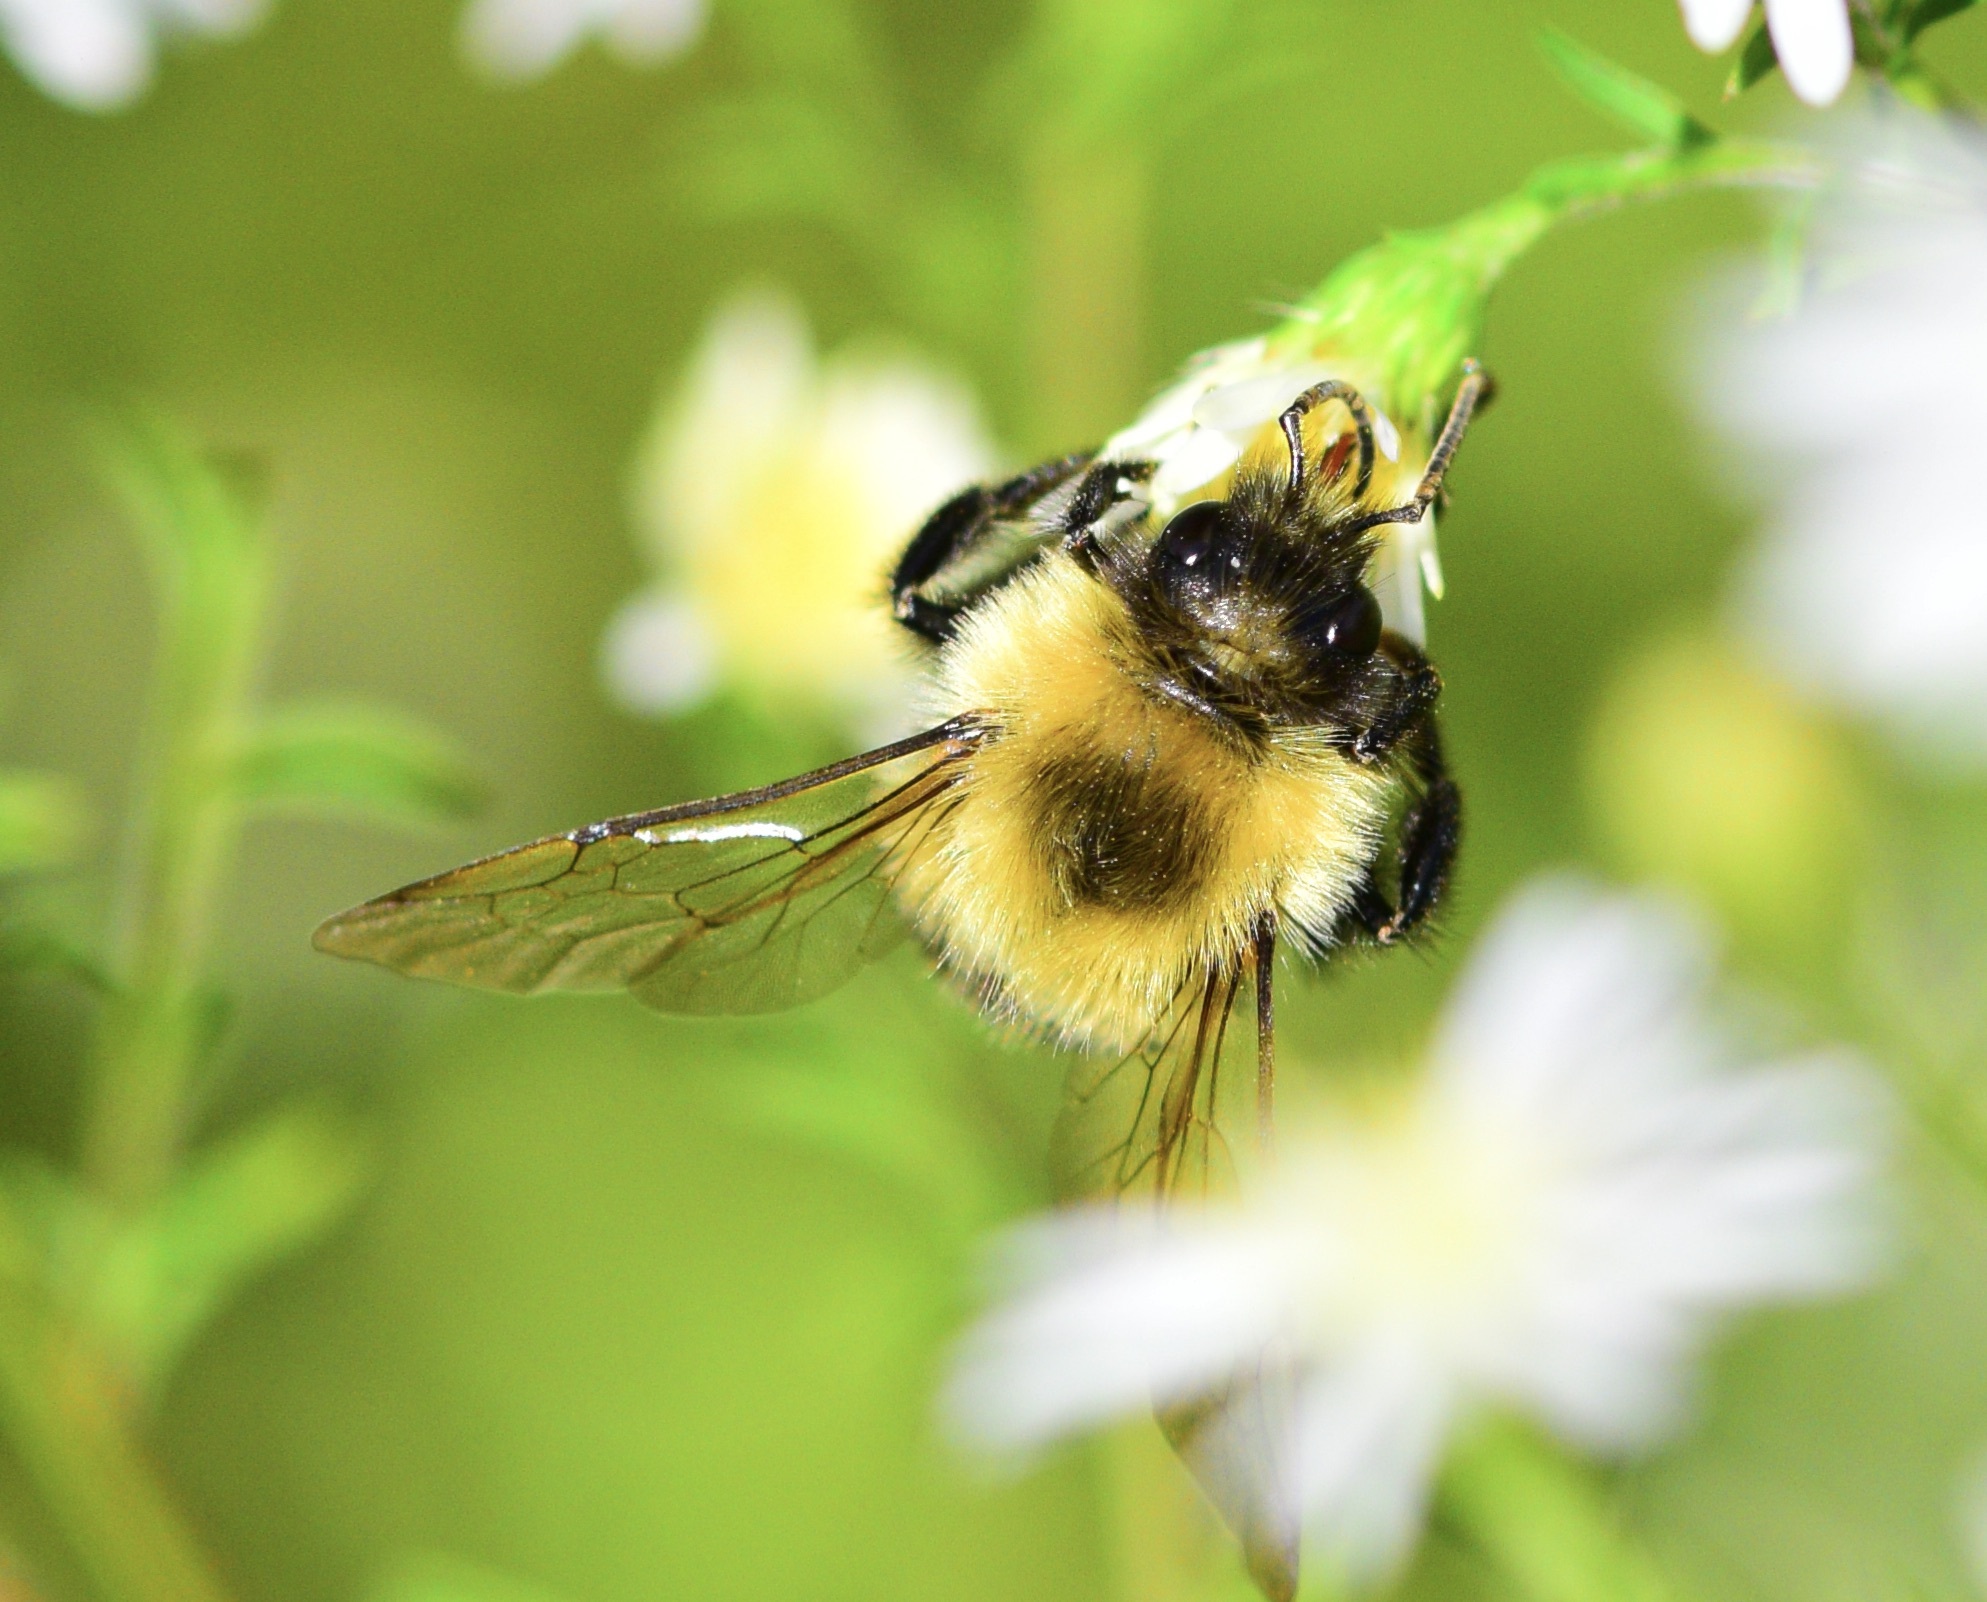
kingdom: Animalia
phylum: Arthropoda
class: Insecta
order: Hymenoptera
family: Apidae
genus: Bombus
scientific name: Bombus impatiens
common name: Common eastern bumble bee
